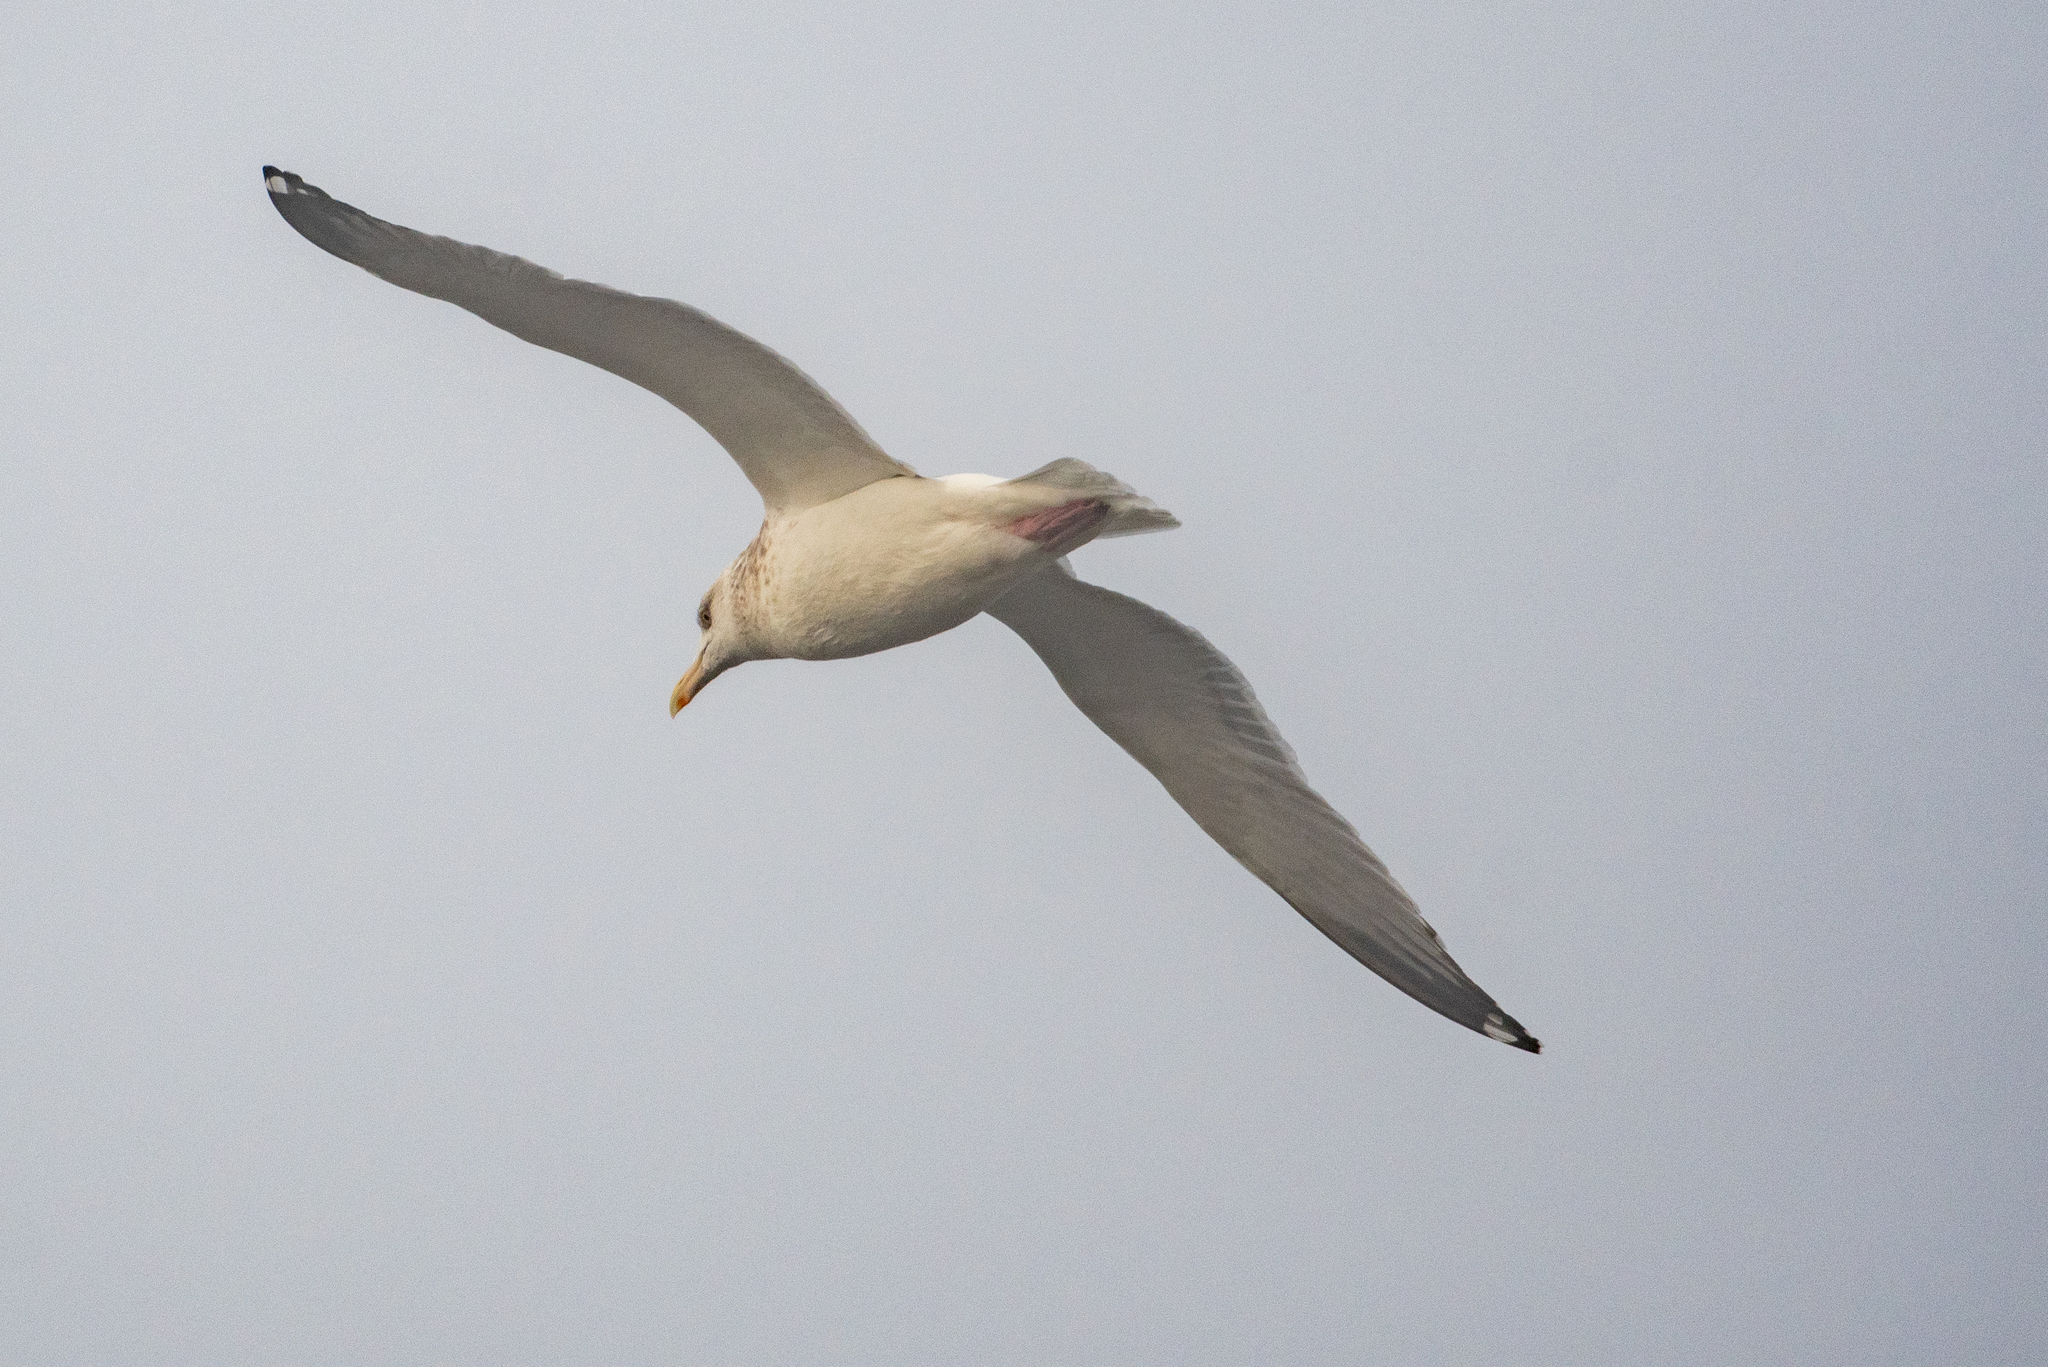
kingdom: Animalia
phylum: Chordata
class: Aves
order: Charadriiformes
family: Laridae
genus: Larus
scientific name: Larus
